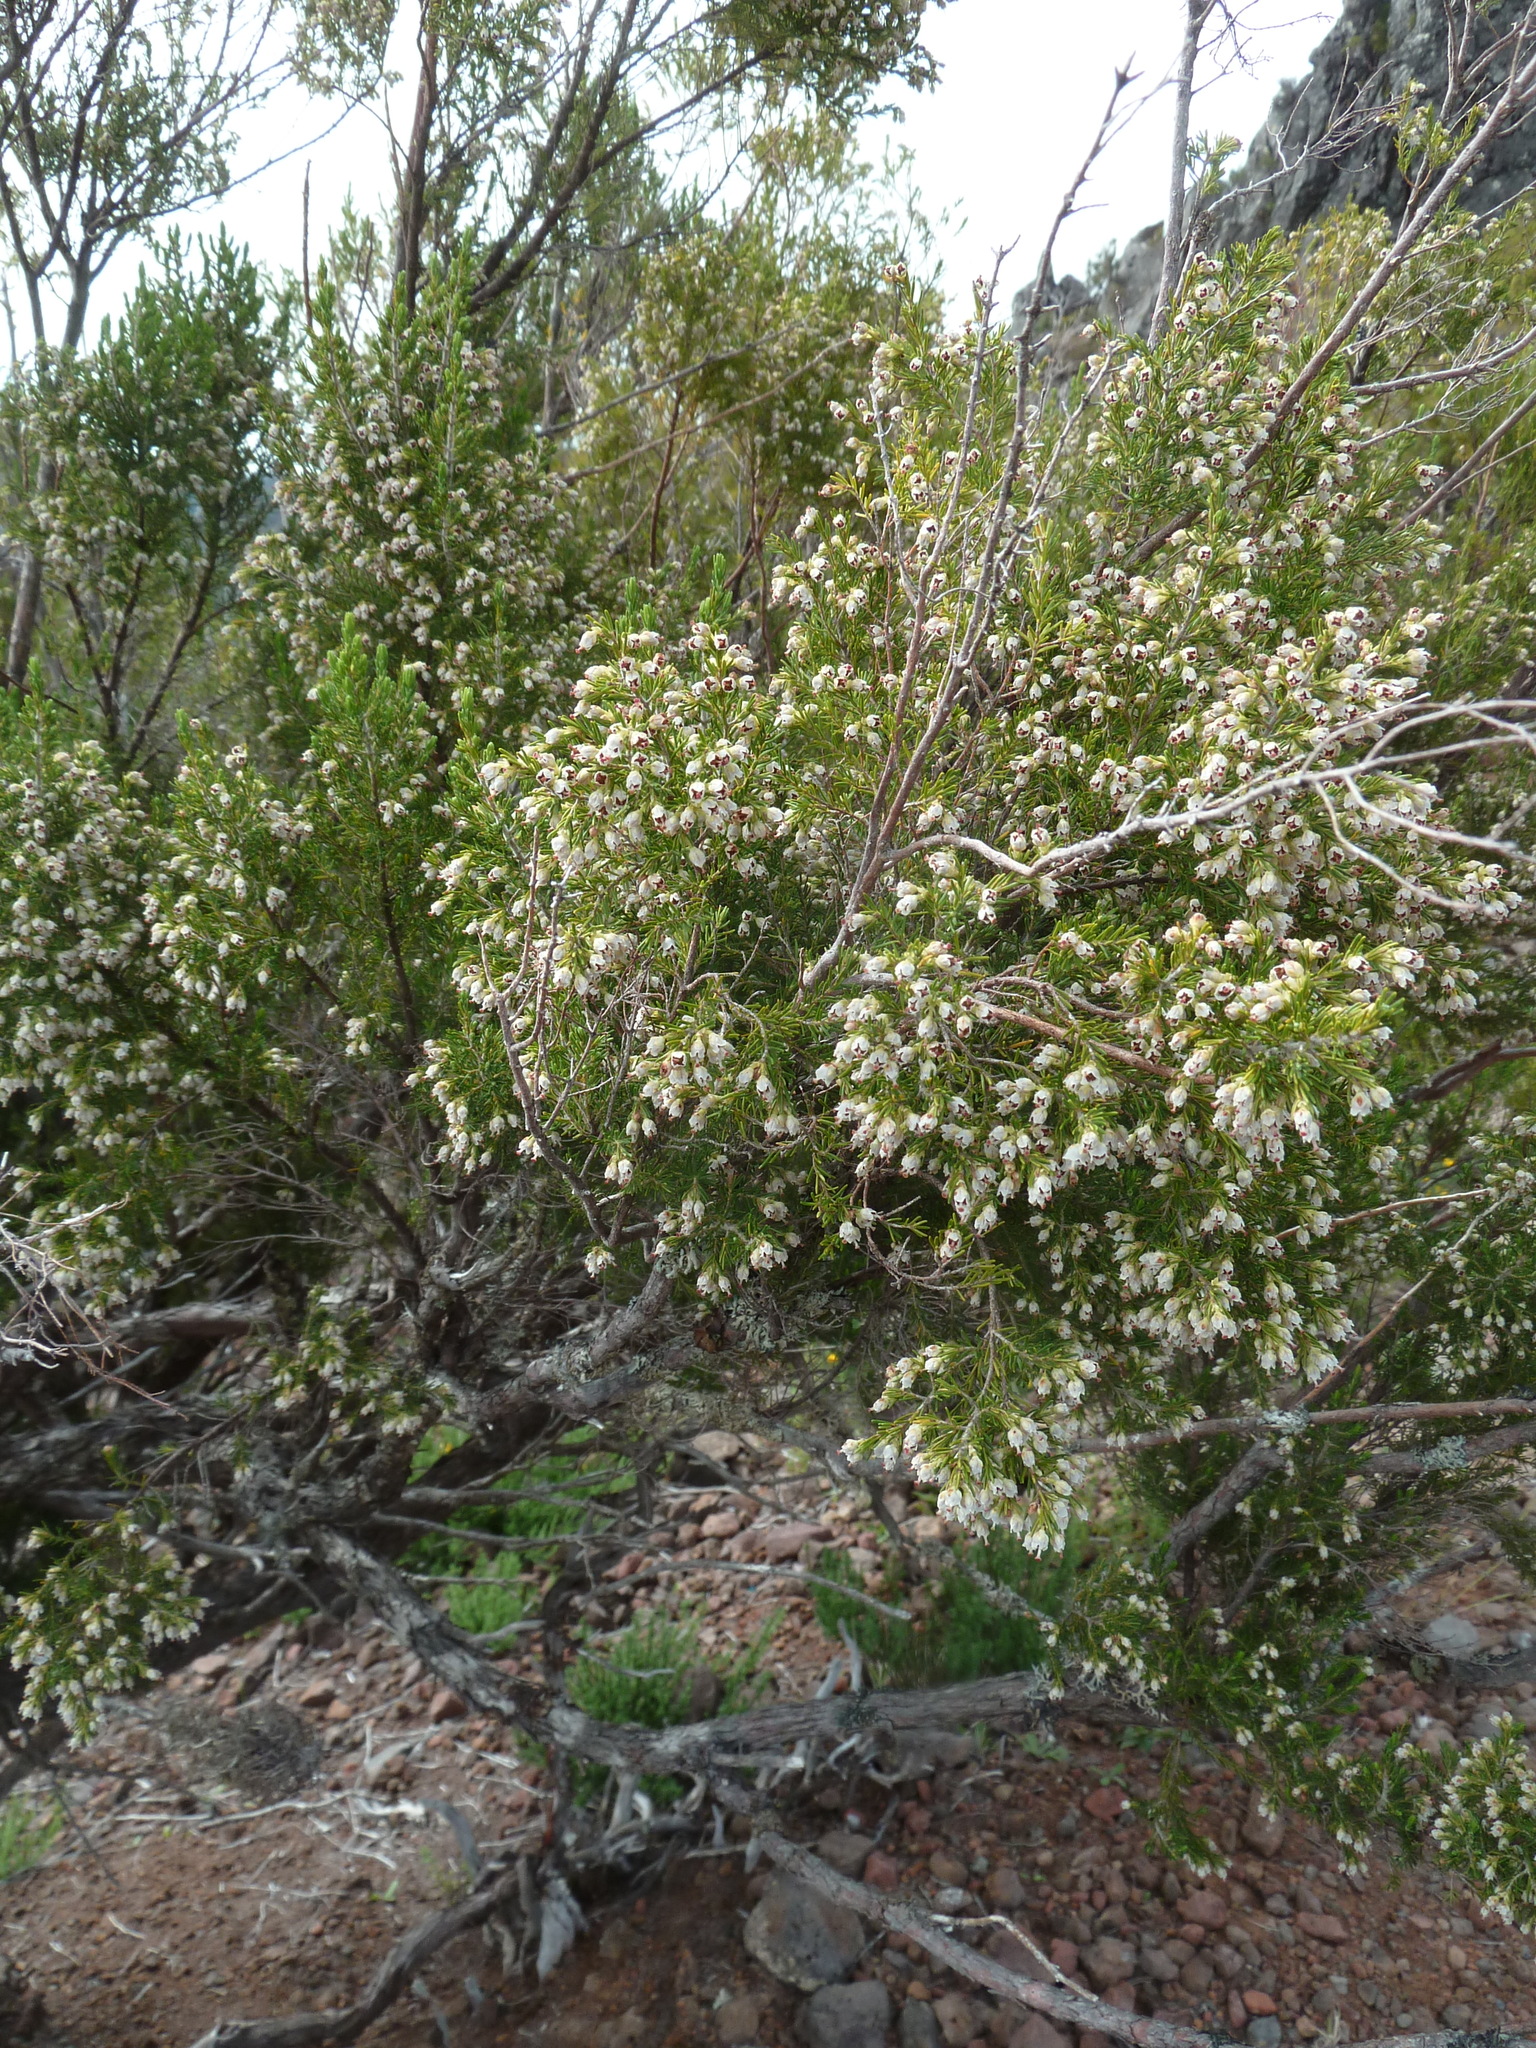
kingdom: Plantae
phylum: Tracheophyta
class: Magnoliopsida
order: Ericales
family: Ericaceae
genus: Erica
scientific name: Erica canariensis
